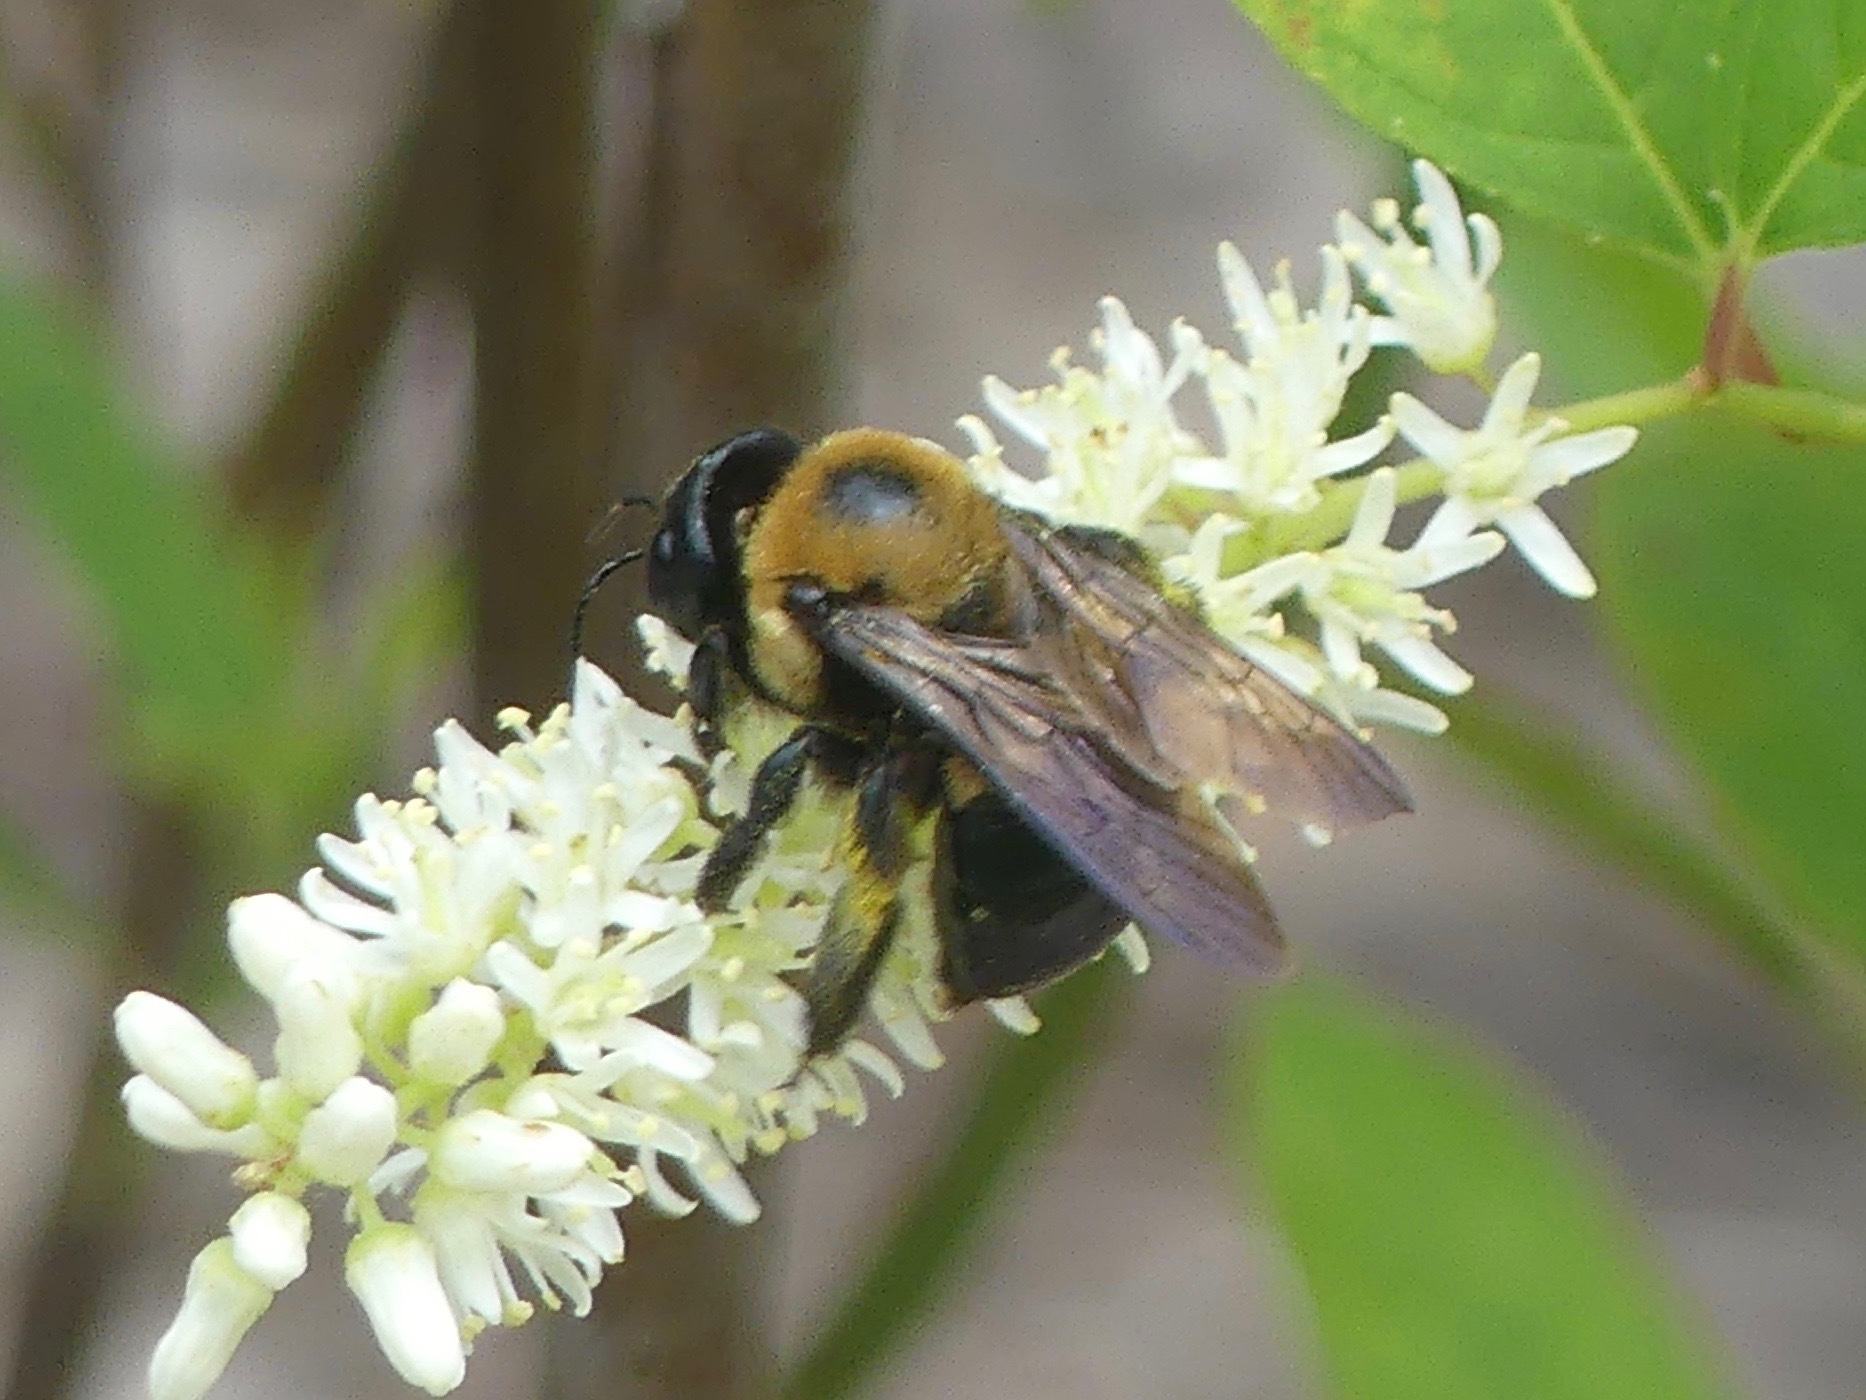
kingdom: Animalia
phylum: Arthropoda
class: Insecta
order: Hymenoptera
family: Apidae
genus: Xylocopa
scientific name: Xylocopa virginica
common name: Carpenter bee
